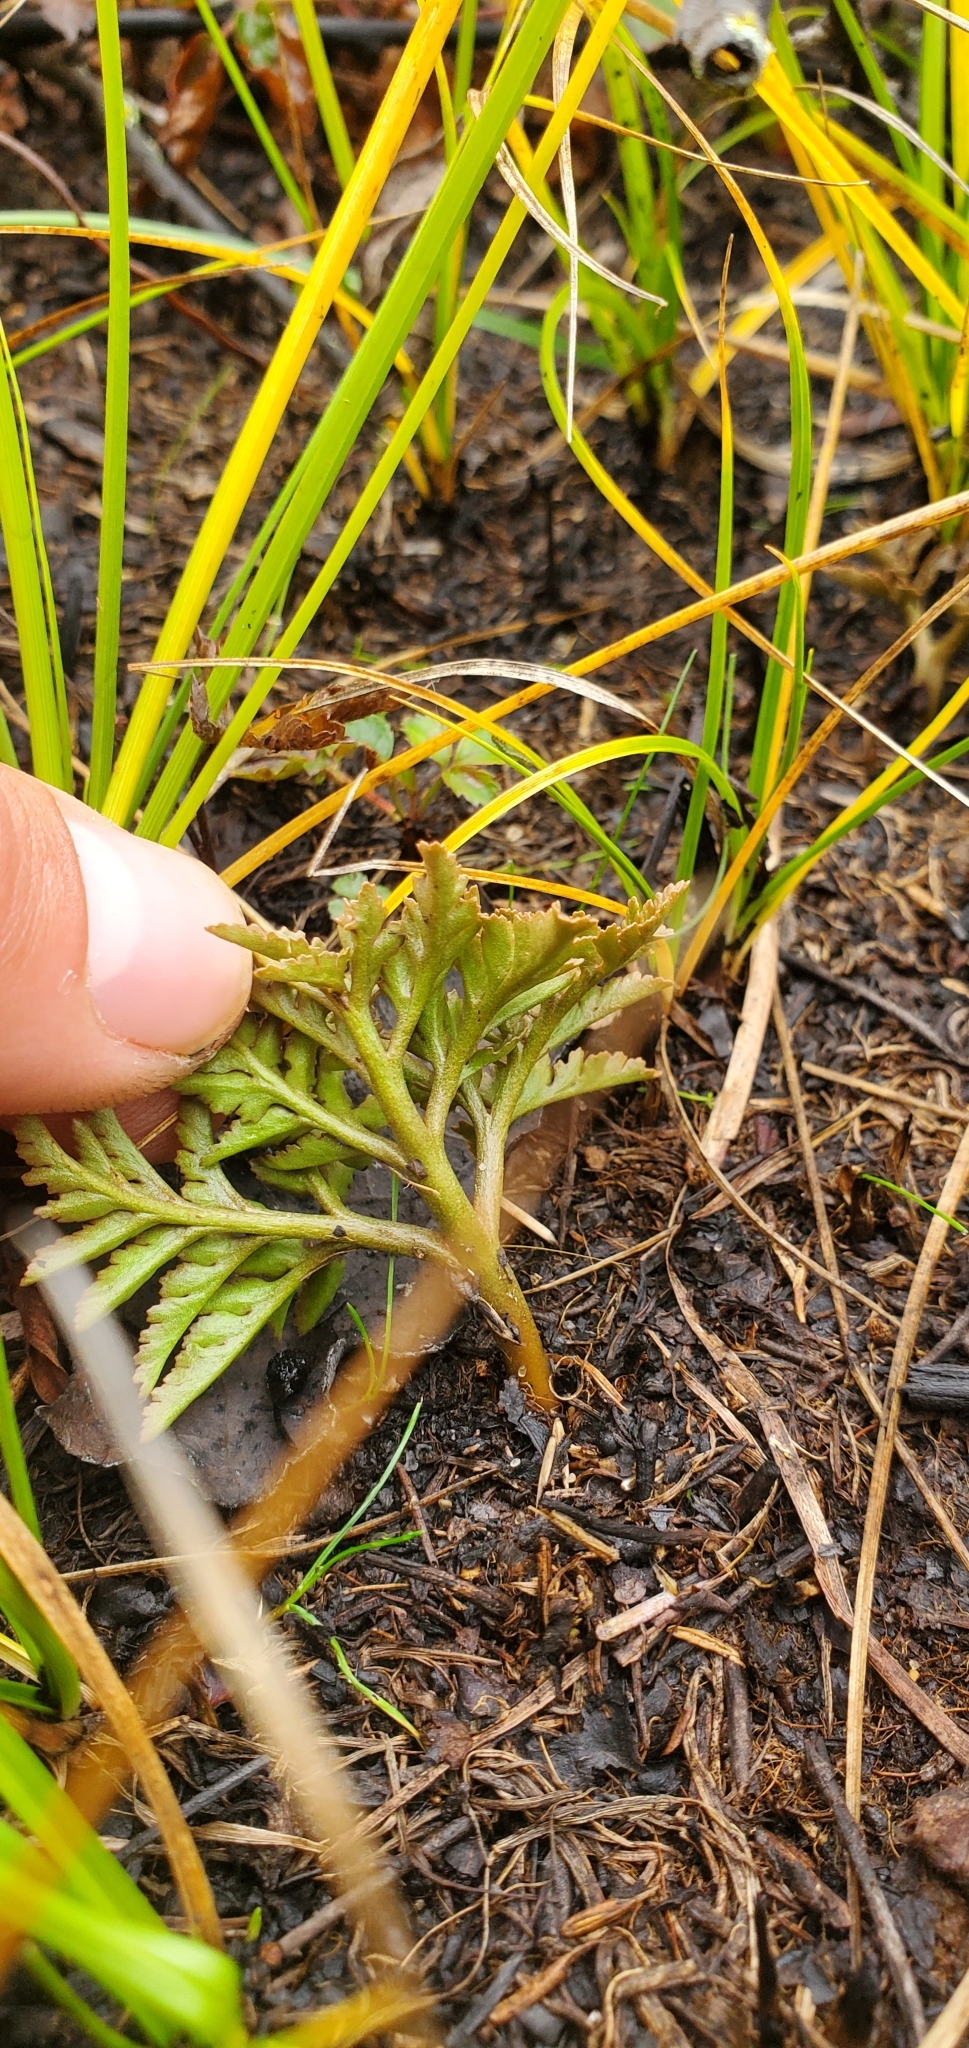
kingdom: Plantae
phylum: Tracheophyta
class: Polypodiopsida
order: Ophioglossales
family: Ophioglossaceae
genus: Sceptridium
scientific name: Sceptridium dissectum
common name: Cut-leaved grapefern
